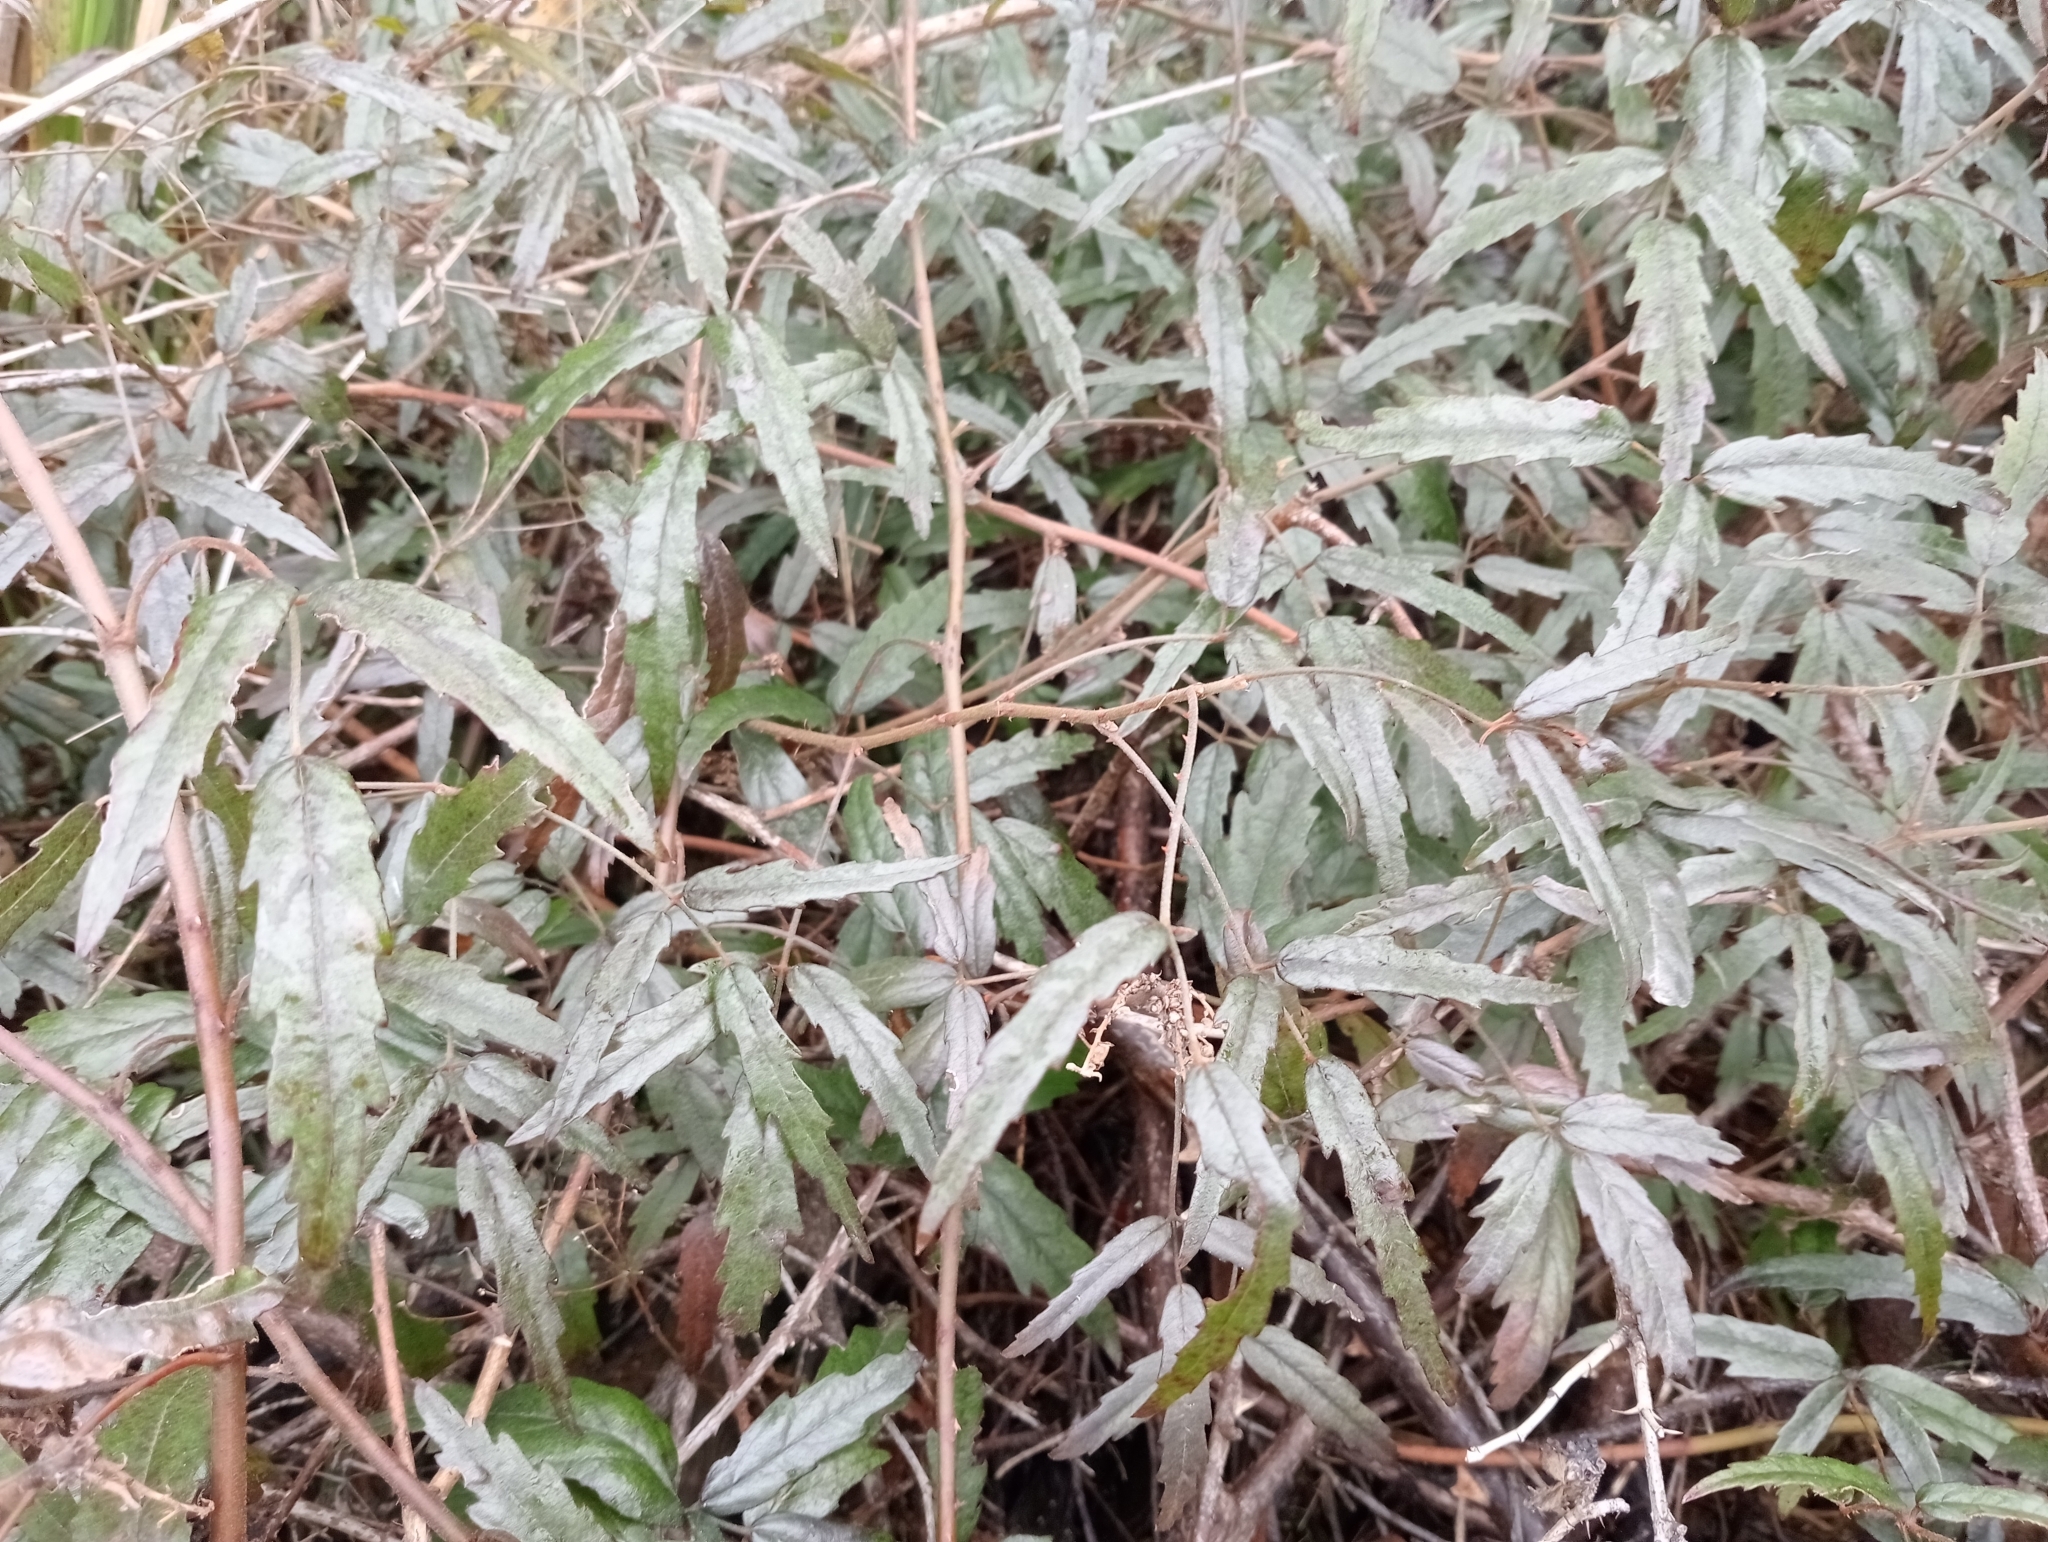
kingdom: Plantae
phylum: Tracheophyta
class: Magnoliopsida
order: Rosales
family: Rosaceae
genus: Rubus
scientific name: Rubus schmidelioides
